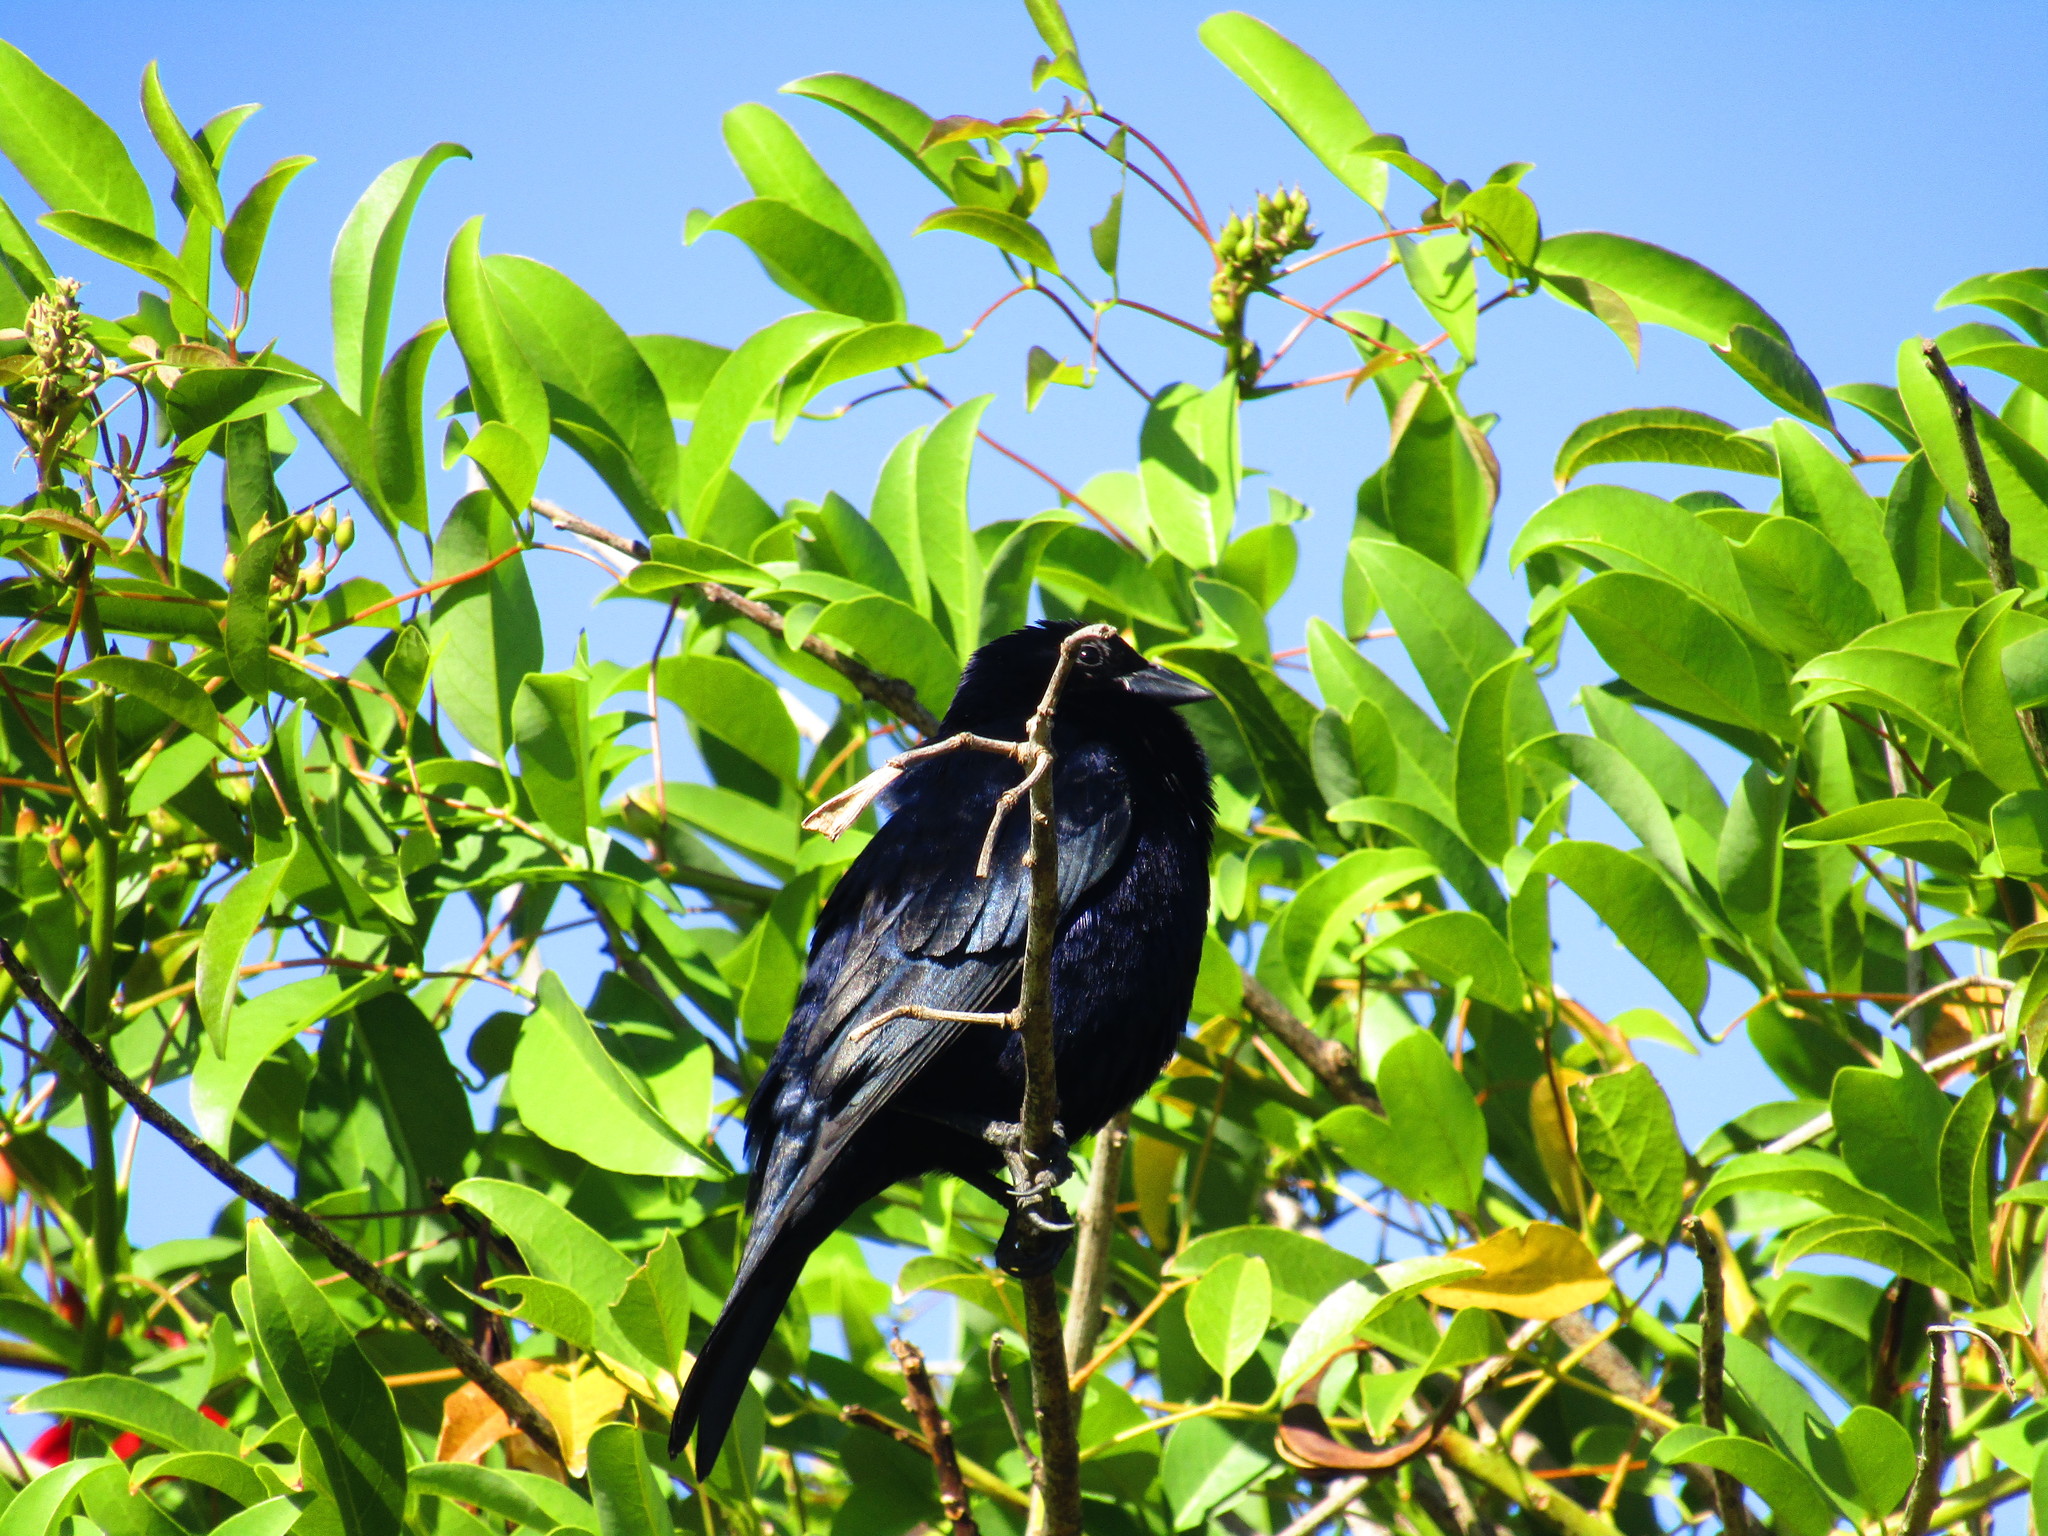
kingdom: Animalia
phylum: Chordata
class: Aves
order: Passeriformes
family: Icteridae
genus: Molothrus
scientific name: Molothrus bonariensis
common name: Shiny cowbird
